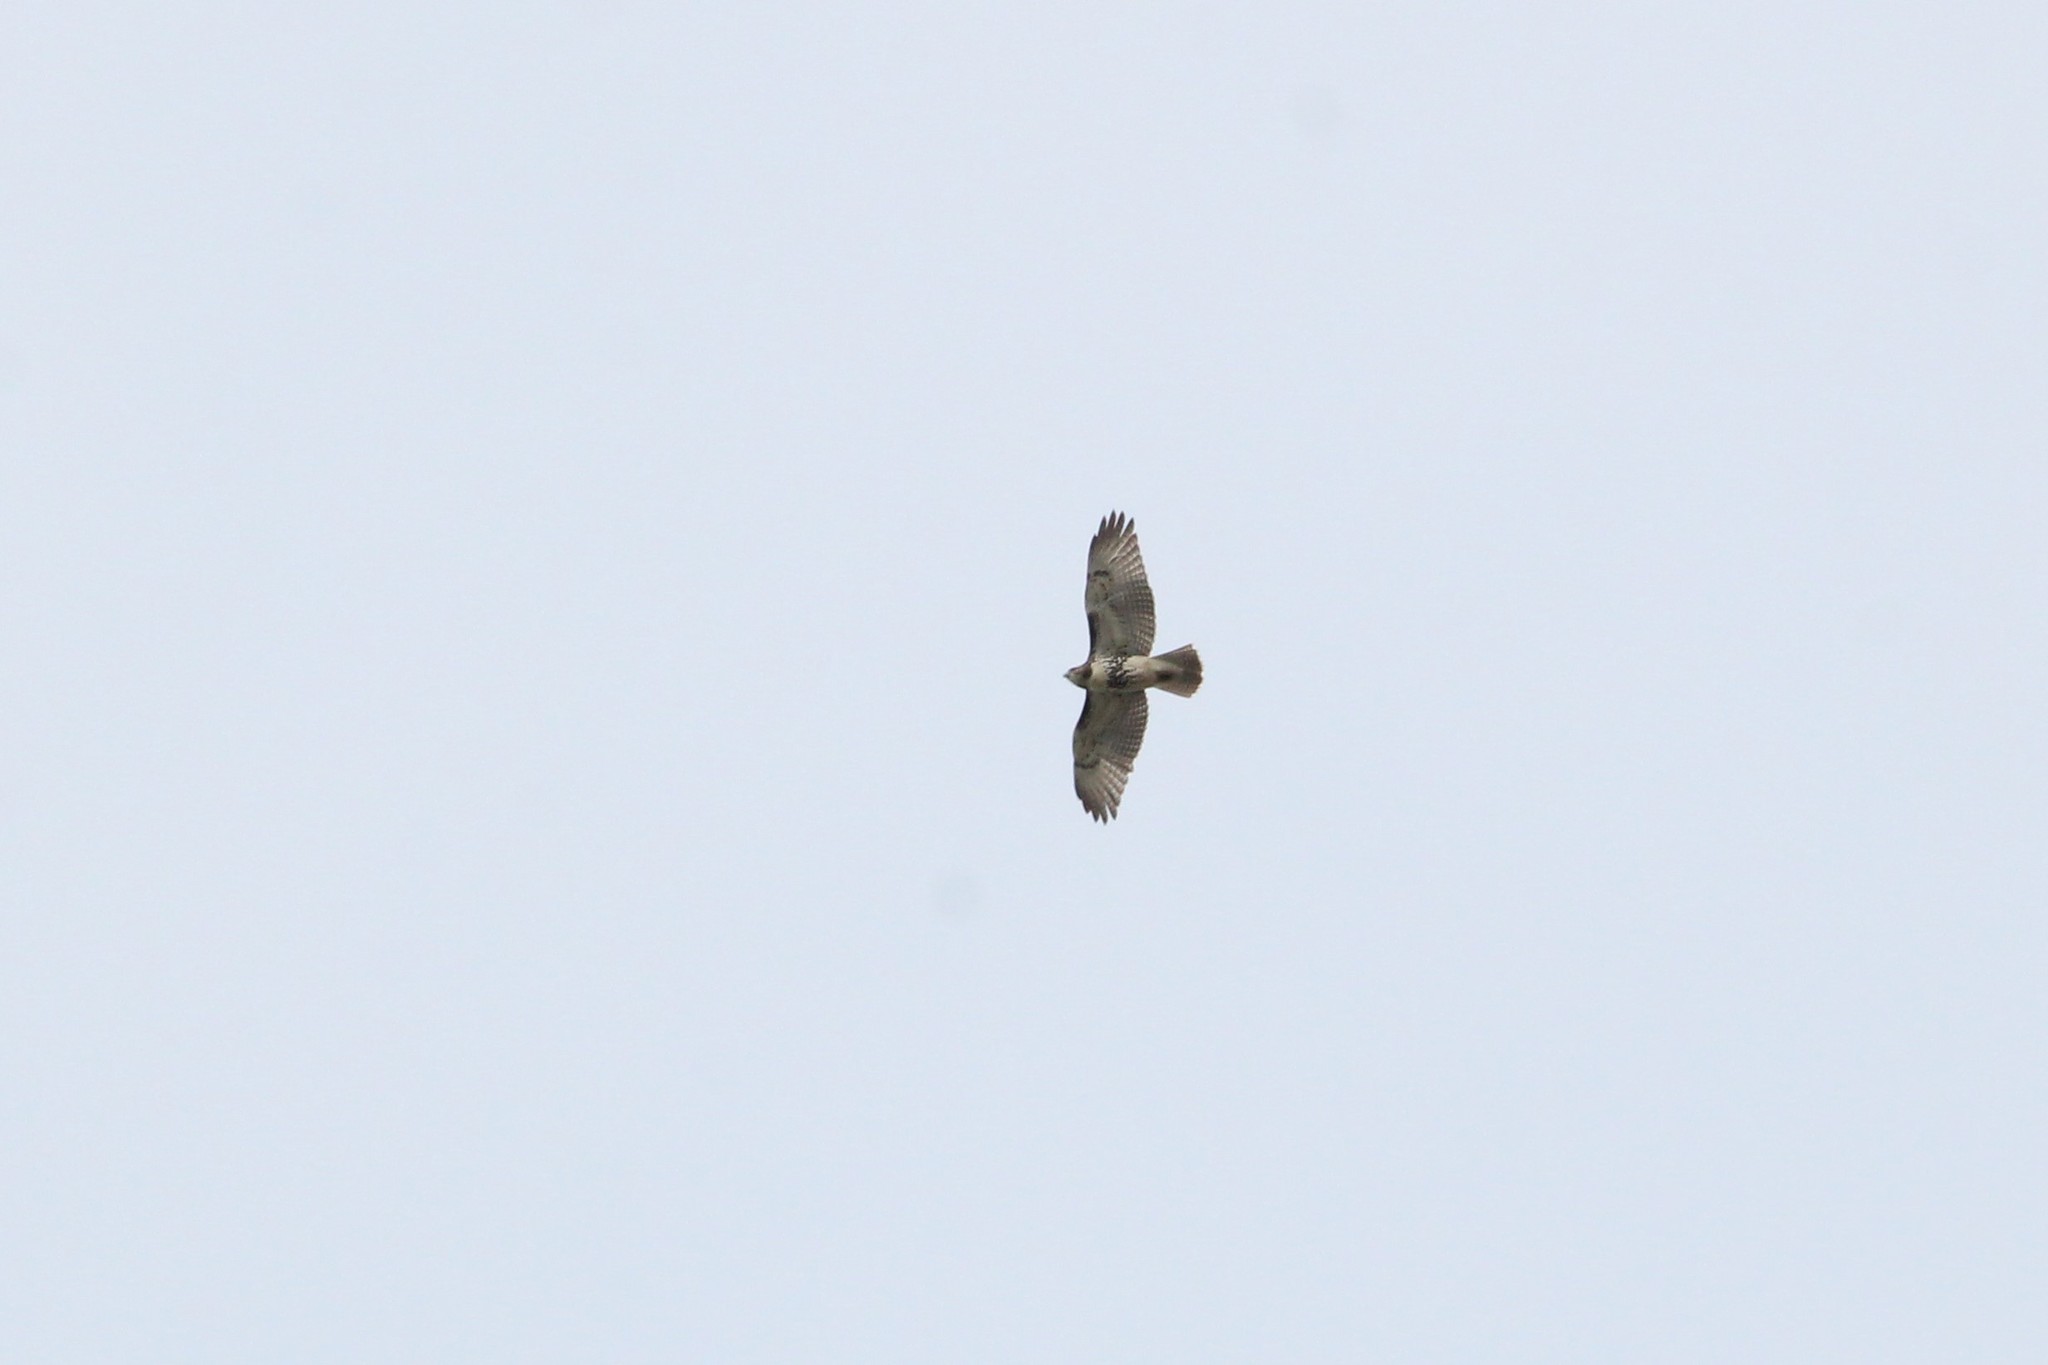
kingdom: Animalia
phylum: Chordata
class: Aves
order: Accipitriformes
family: Accipitridae
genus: Buteo
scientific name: Buteo jamaicensis
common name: Red-tailed hawk
